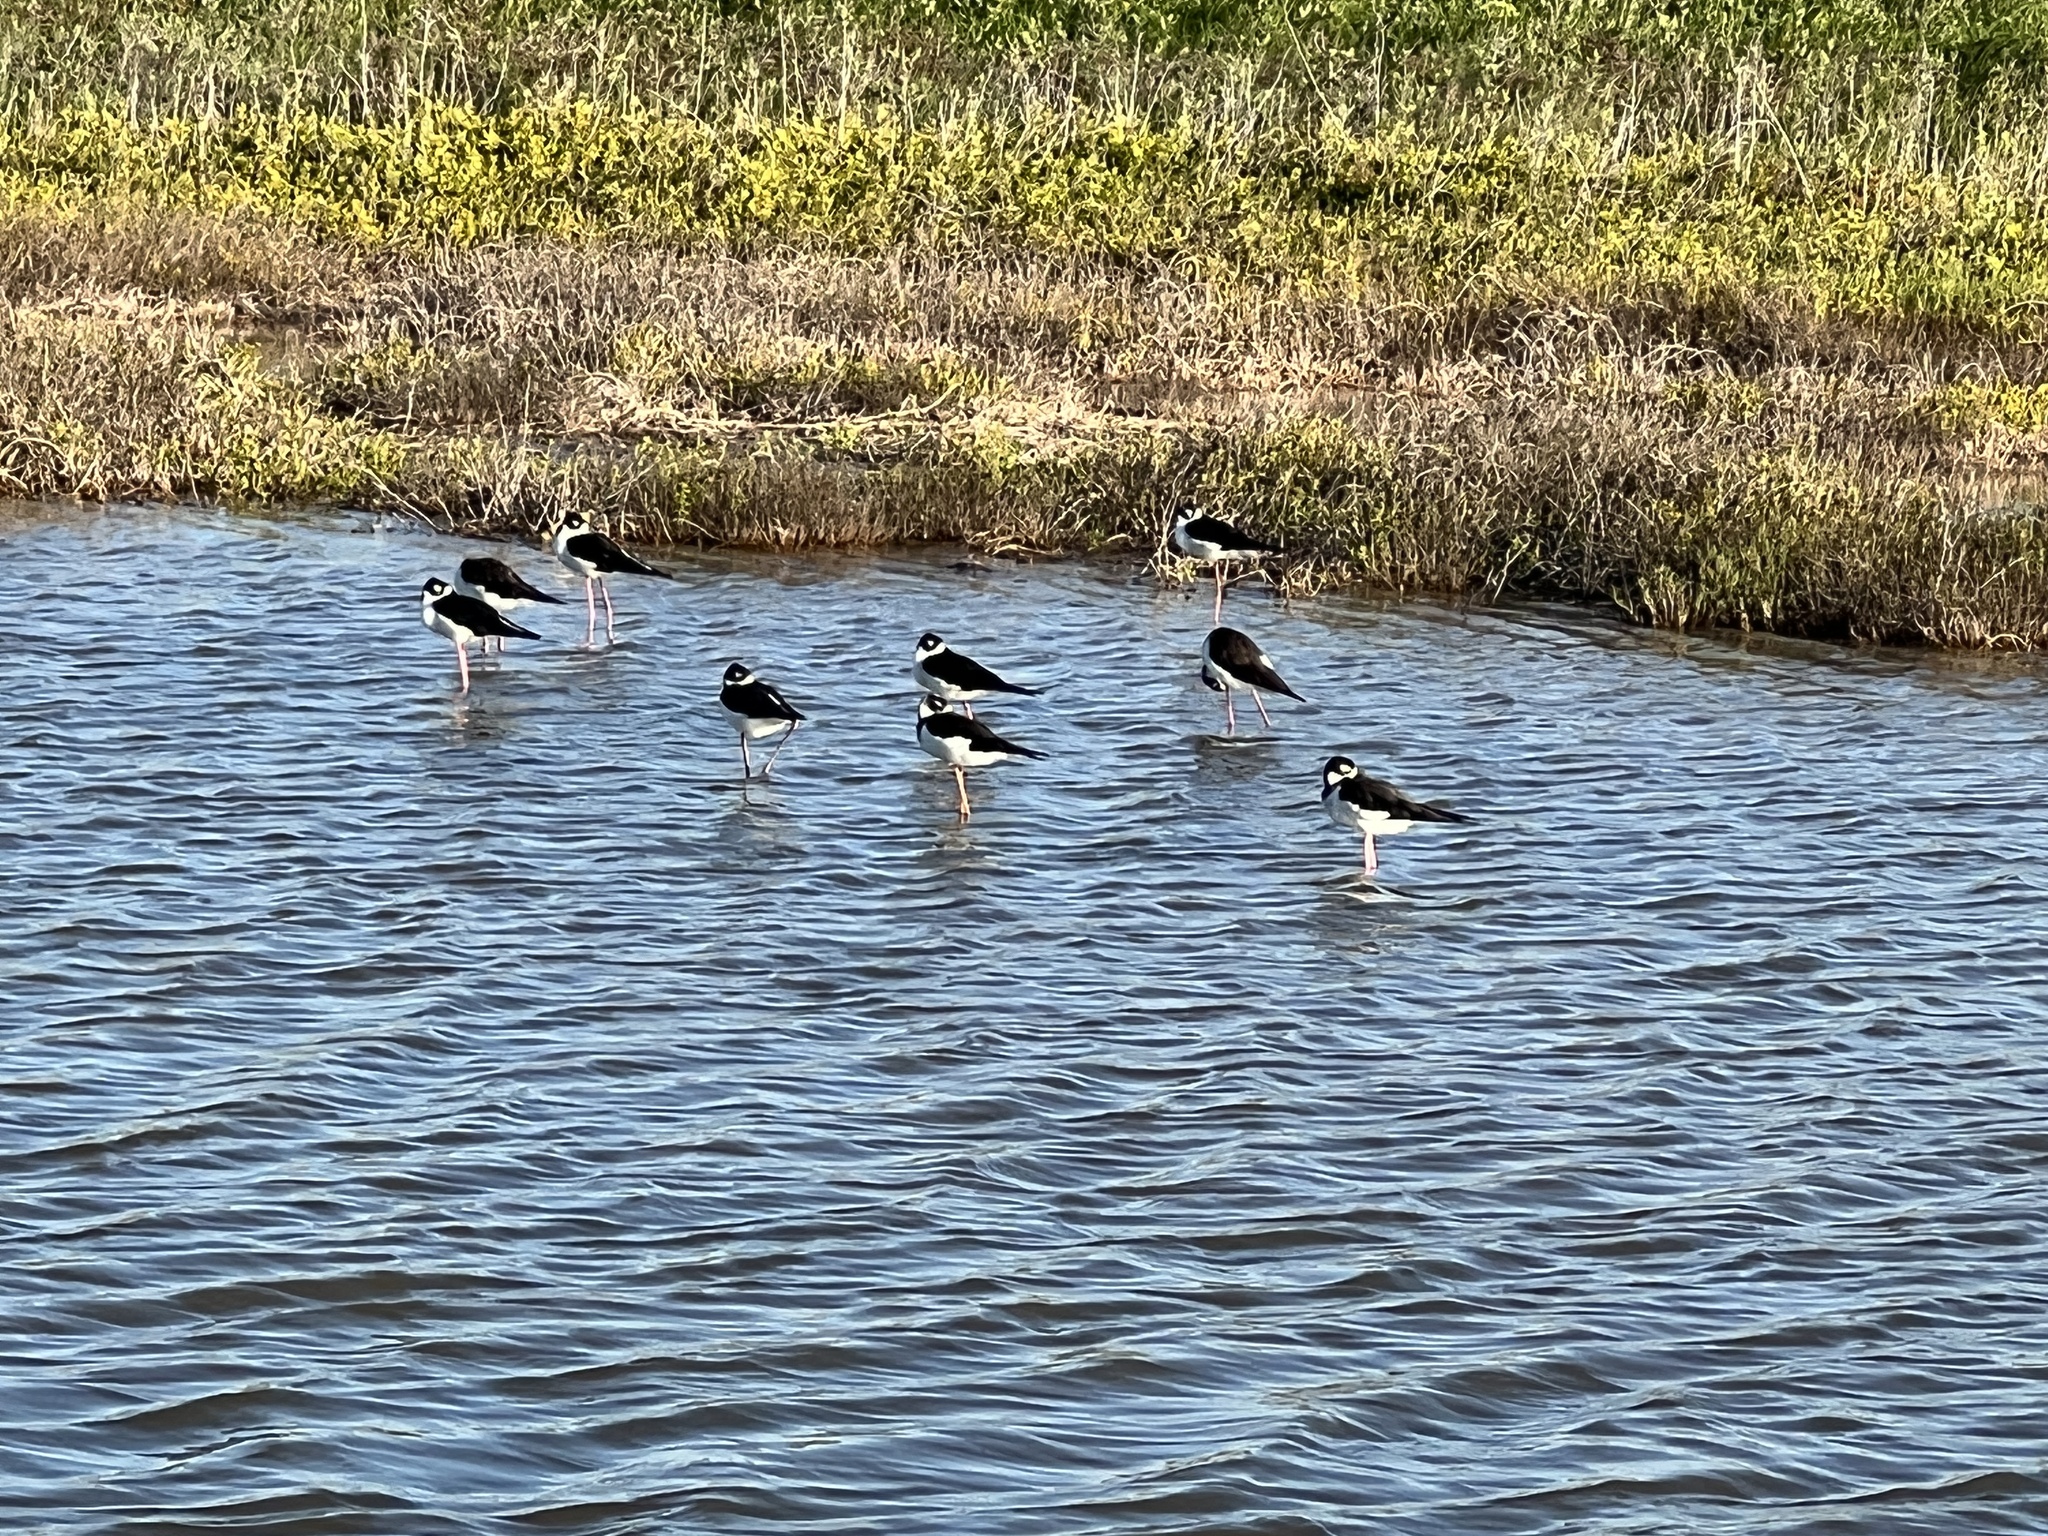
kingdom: Animalia
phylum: Chordata
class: Aves
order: Charadriiformes
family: Recurvirostridae
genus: Himantopus
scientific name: Himantopus mexicanus
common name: Black-necked stilt
